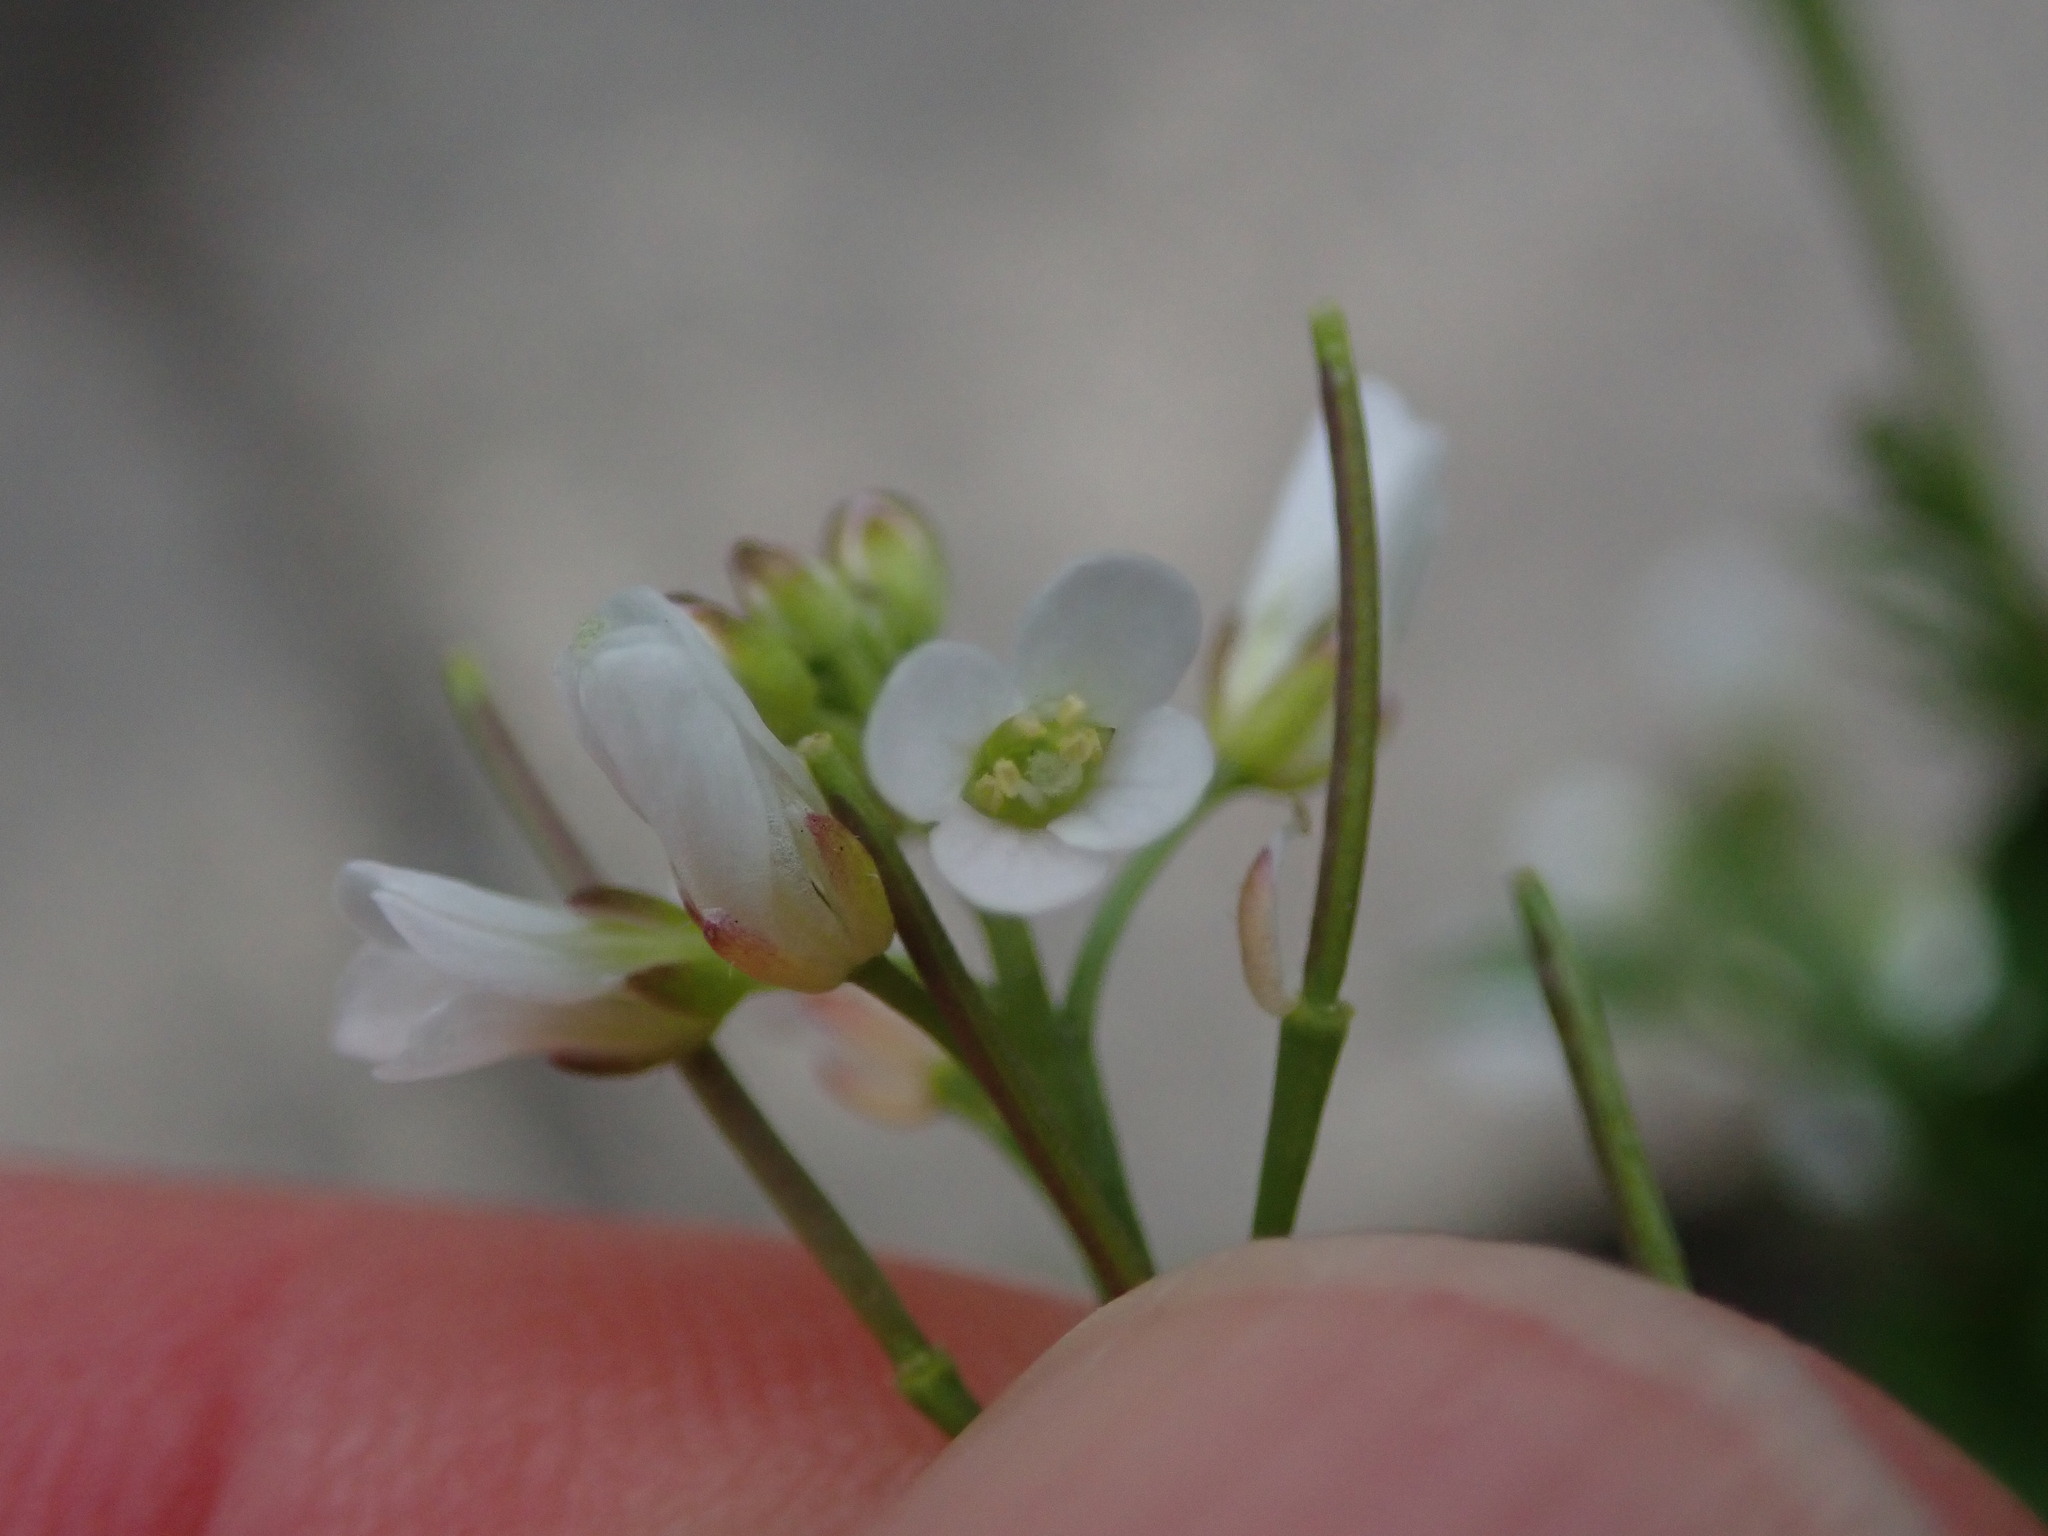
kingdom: Plantae
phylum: Tracheophyta
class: Magnoliopsida
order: Brassicales
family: Brassicaceae
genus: Cardamine
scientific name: Cardamine flexuosa
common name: Woodland bittercress
